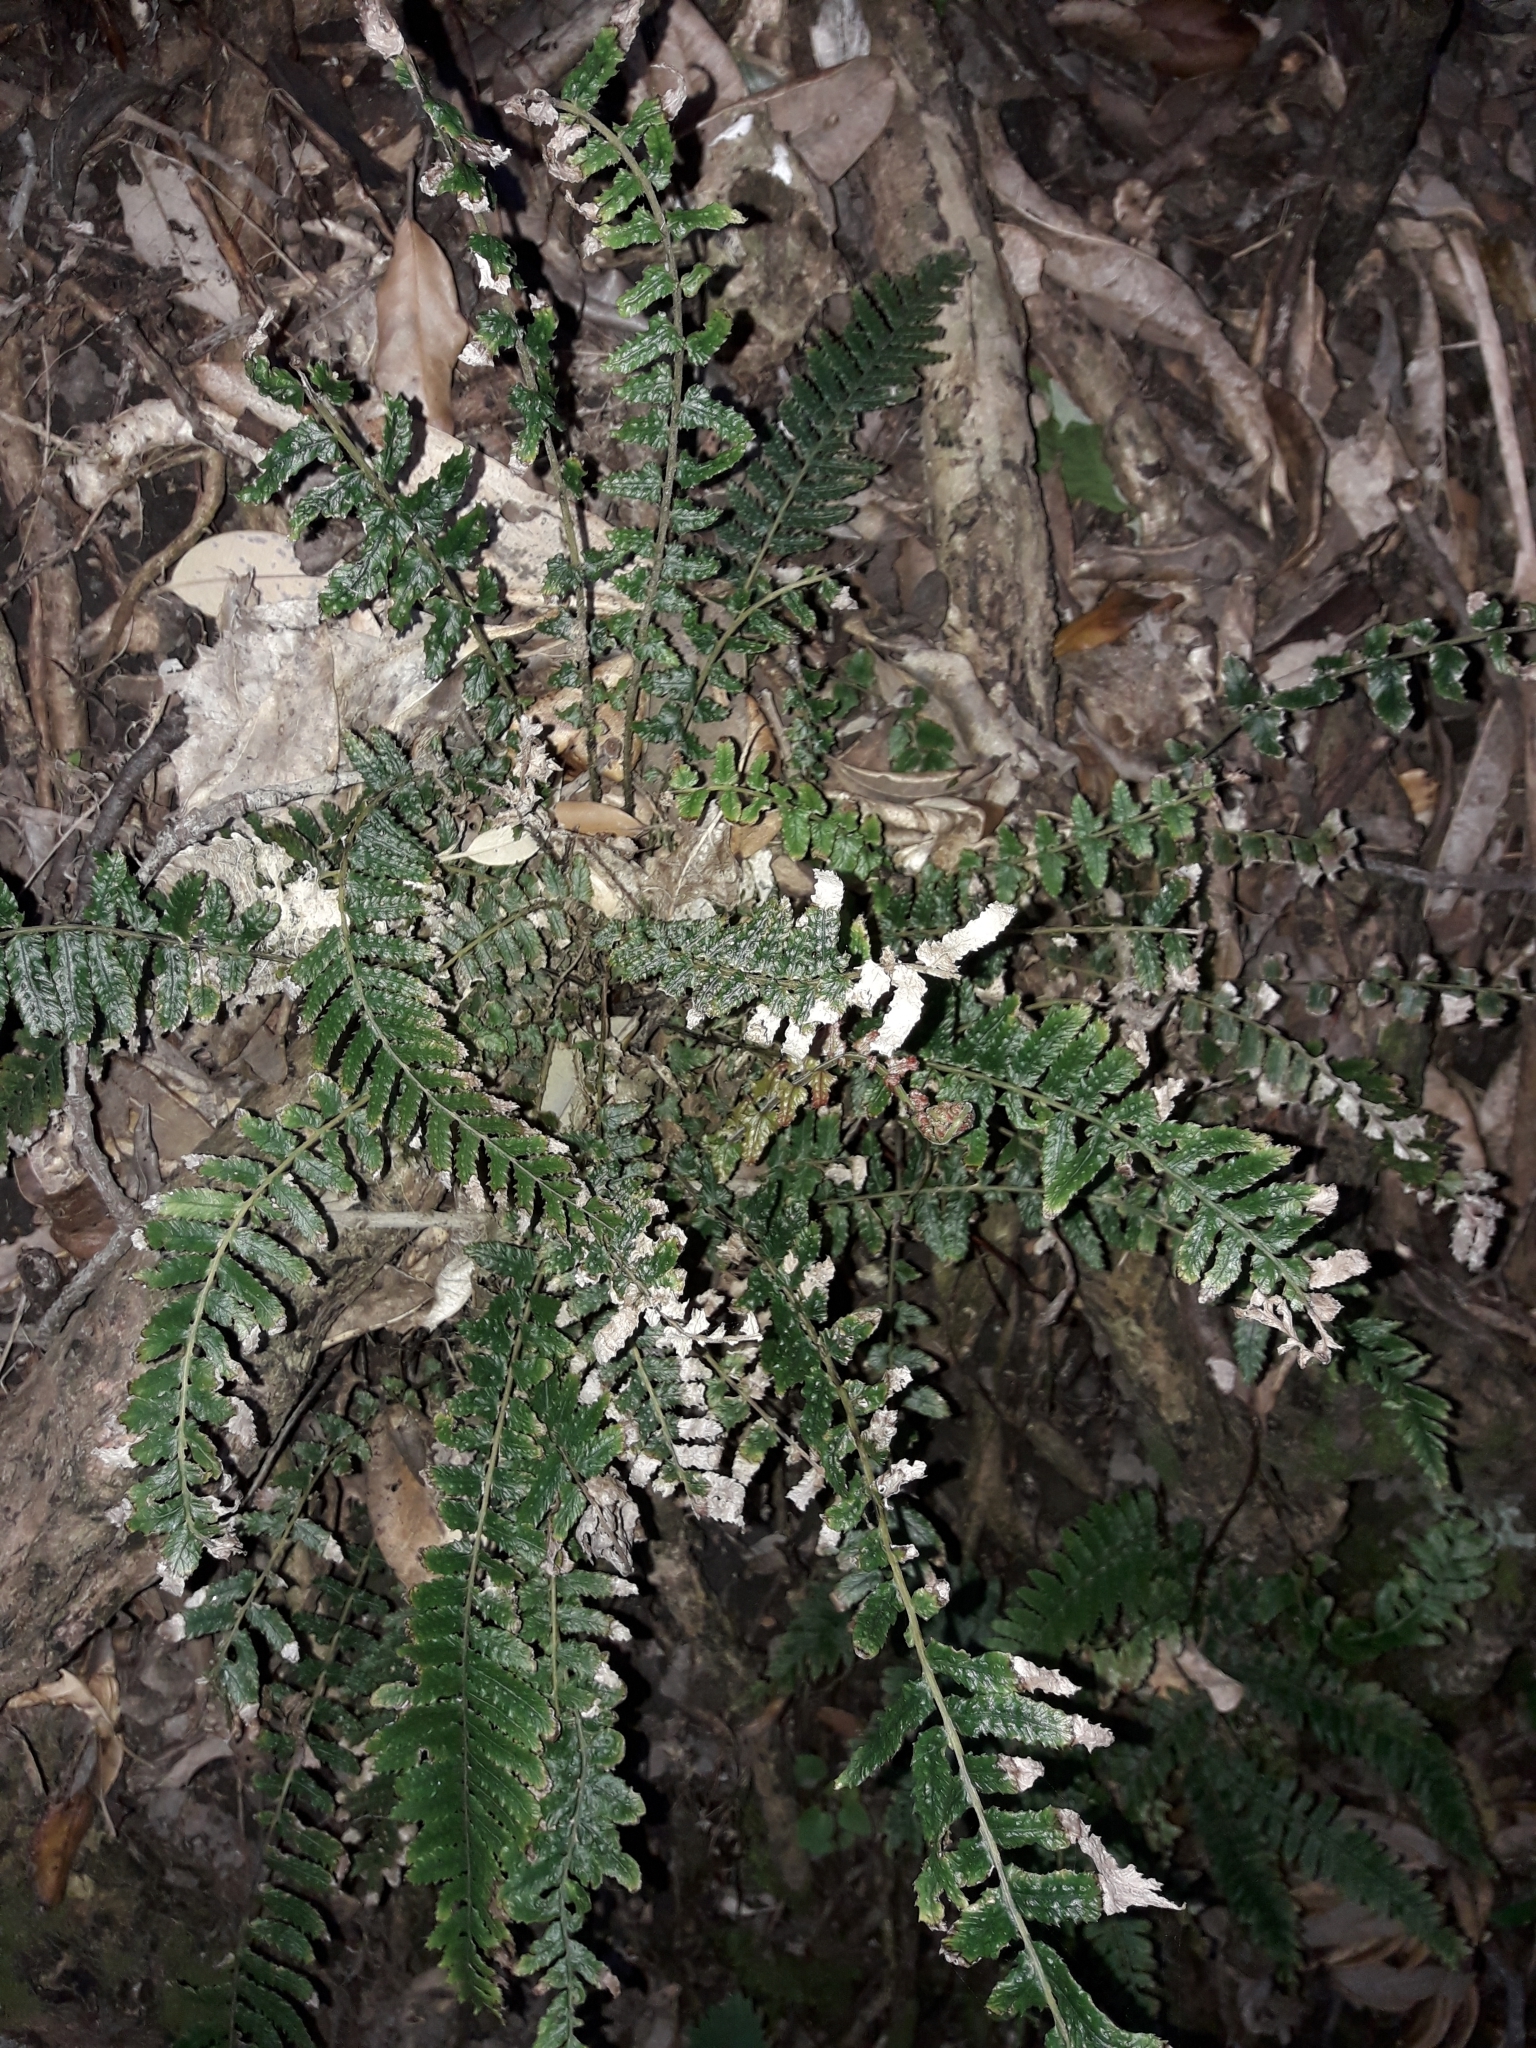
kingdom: Plantae
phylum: Tracheophyta
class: Polypodiopsida
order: Polypodiales
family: Blechnaceae
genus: Doodia
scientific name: Doodia australis
